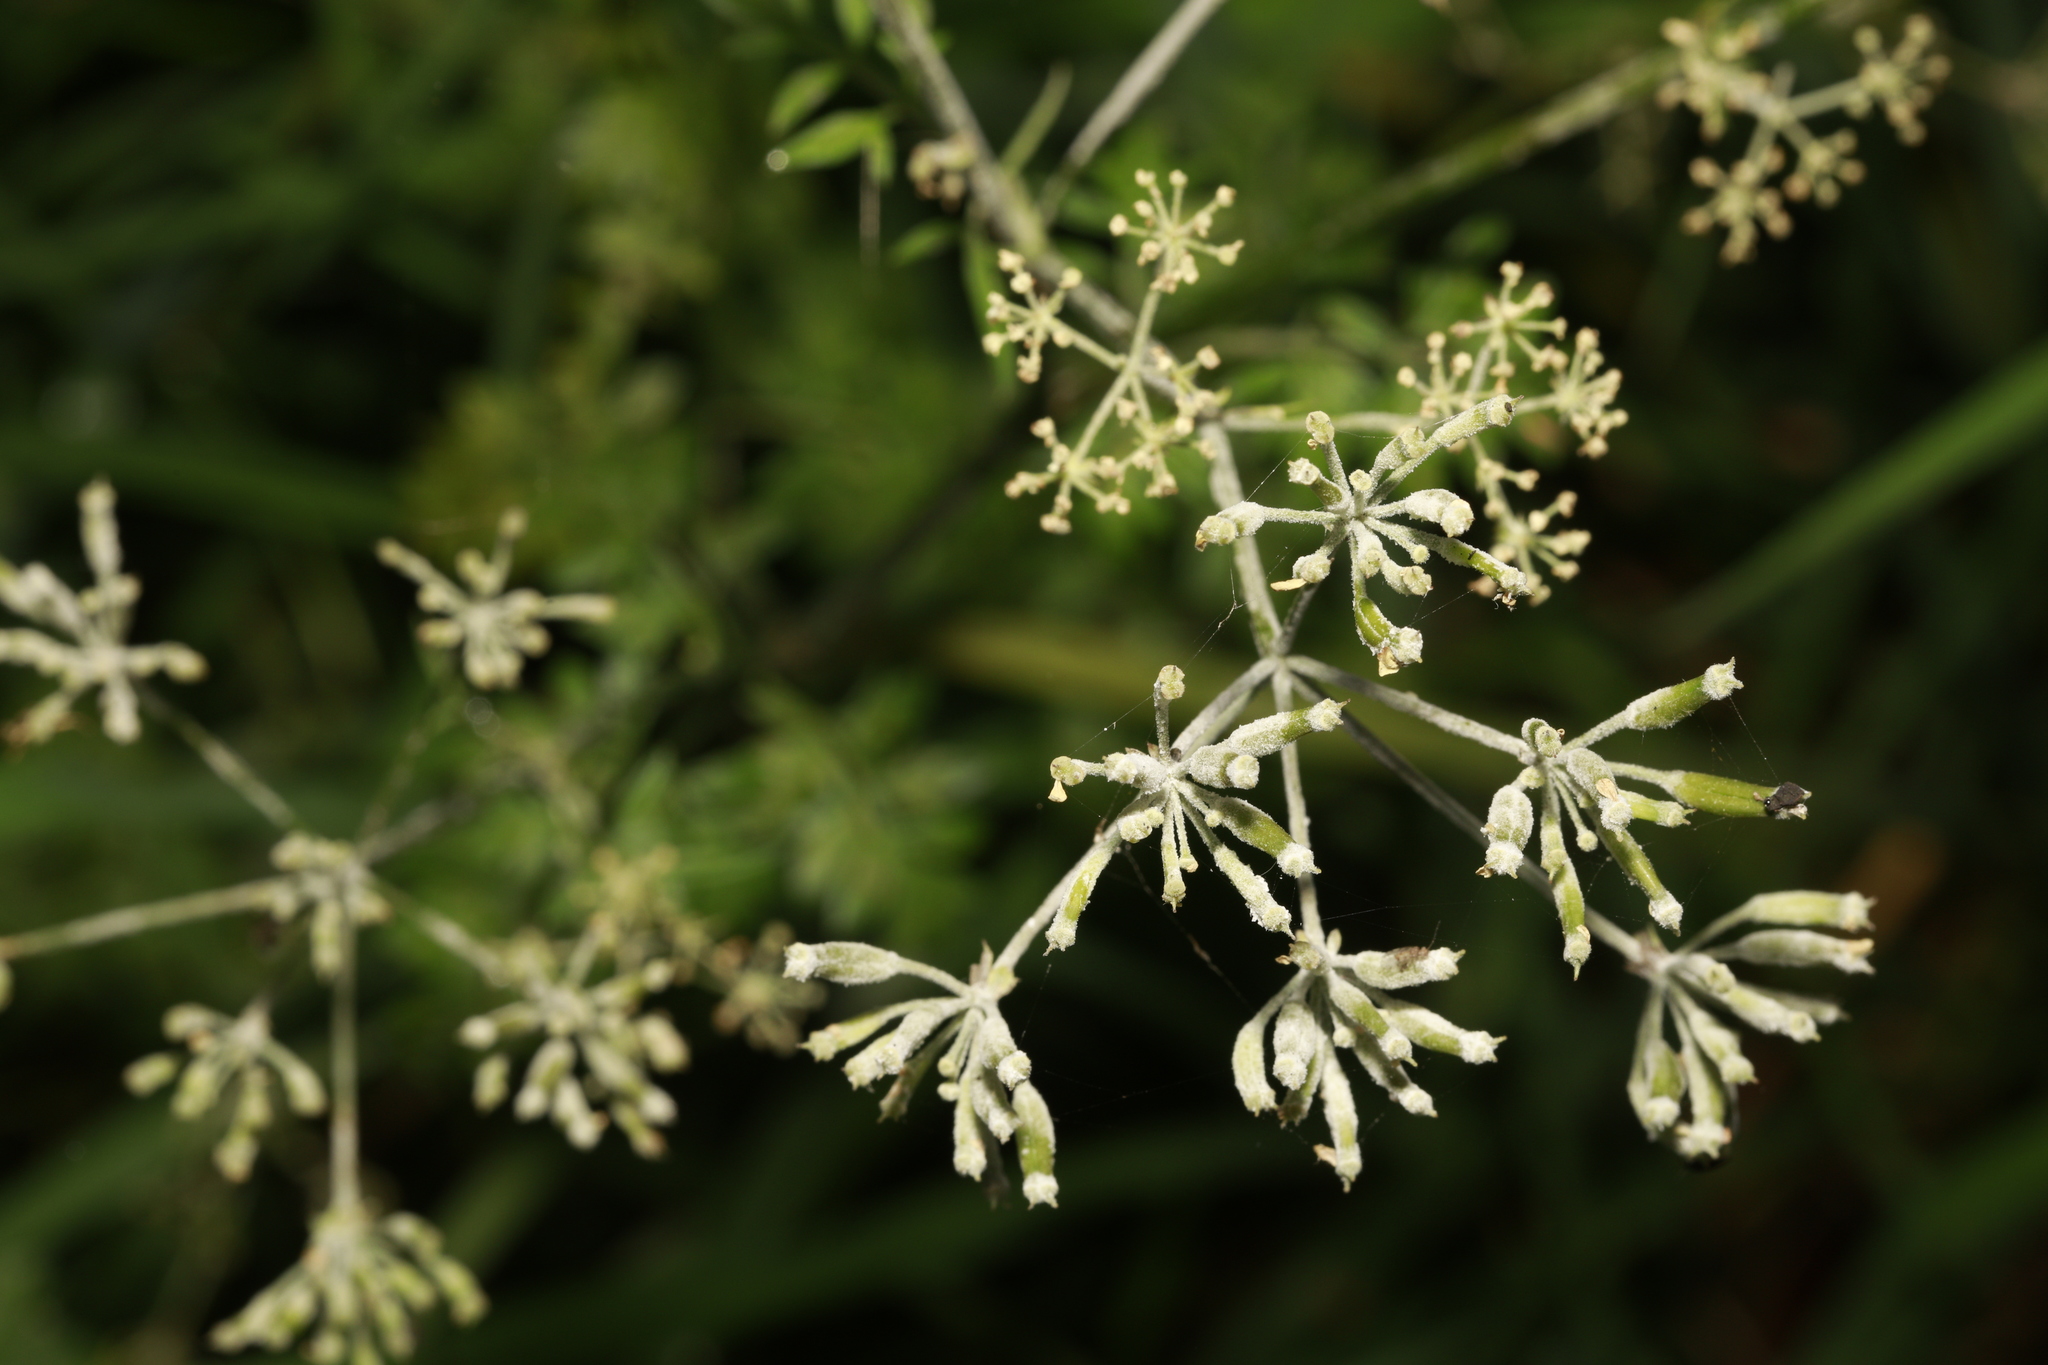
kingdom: Fungi
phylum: Ascomycota
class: Leotiomycetes
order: Helotiales
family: Erysiphaceae
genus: Erysiphe
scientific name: Erysiphe heraclei
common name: Umbellifer mildew
